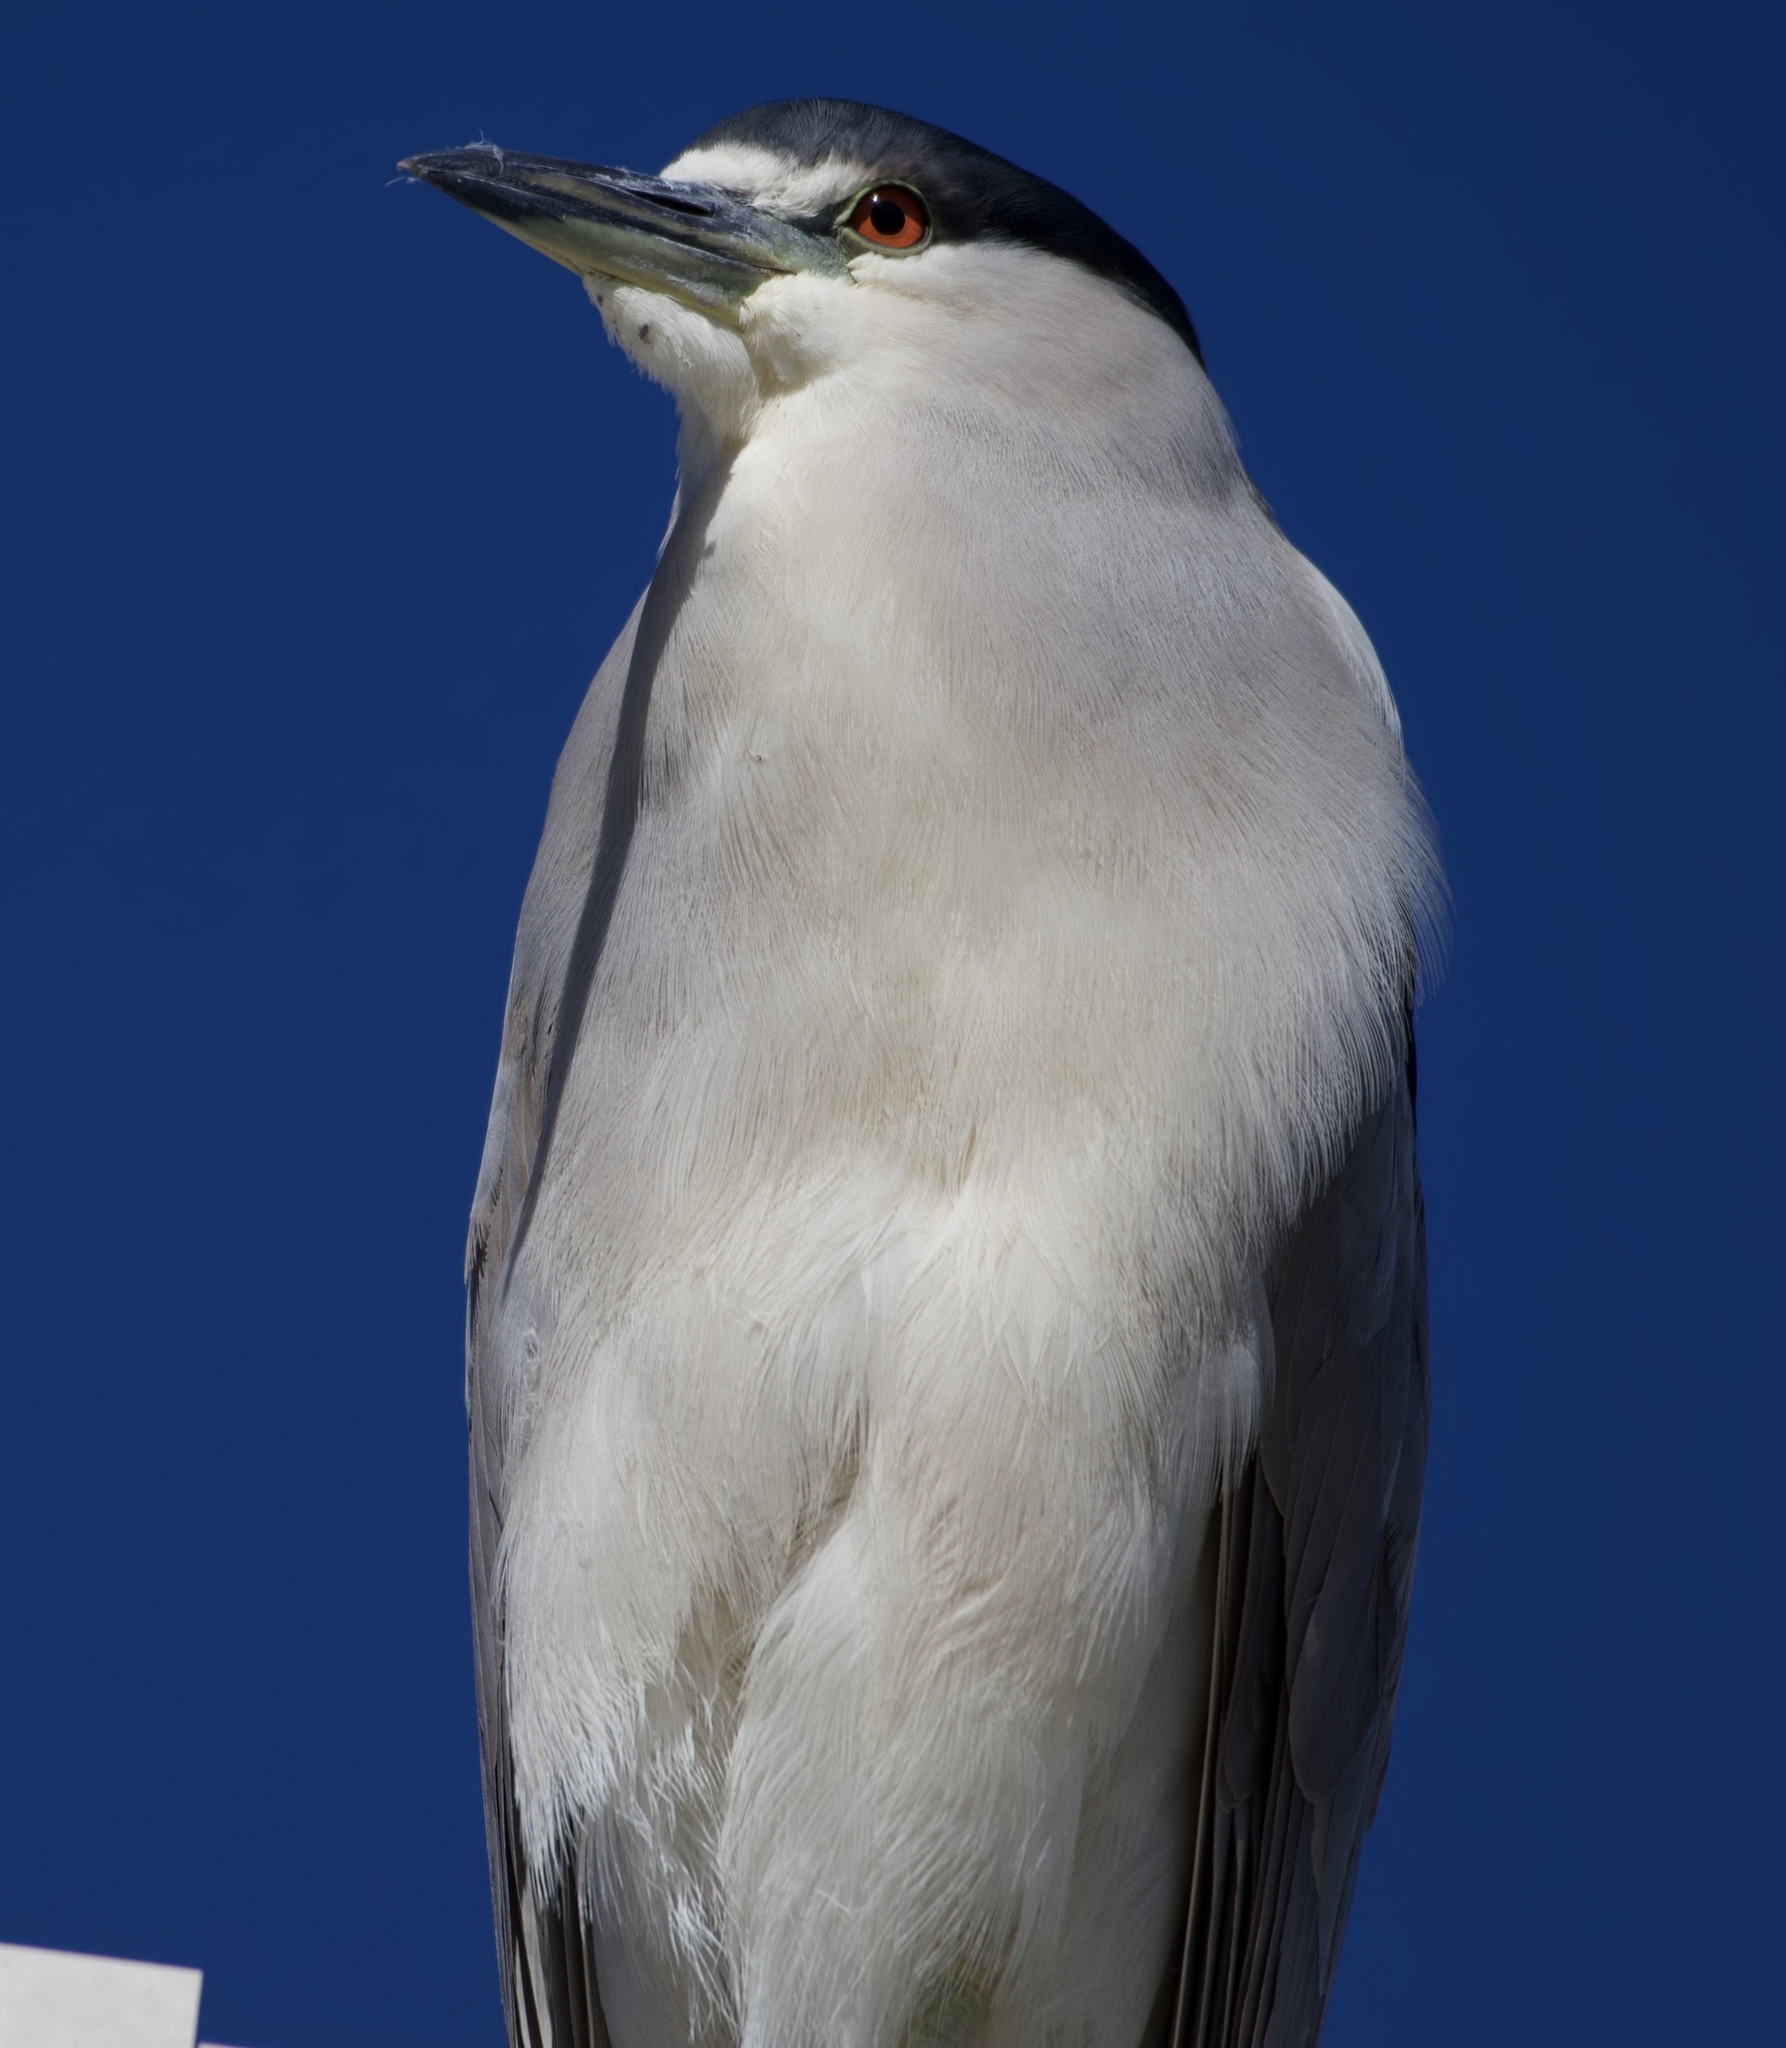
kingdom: Animalia
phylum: Chordata
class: Aves
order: Pelecaniformes
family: Ardeidae
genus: Nycticorax
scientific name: Nycticorax nycticorax
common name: Black-crowned night heron
